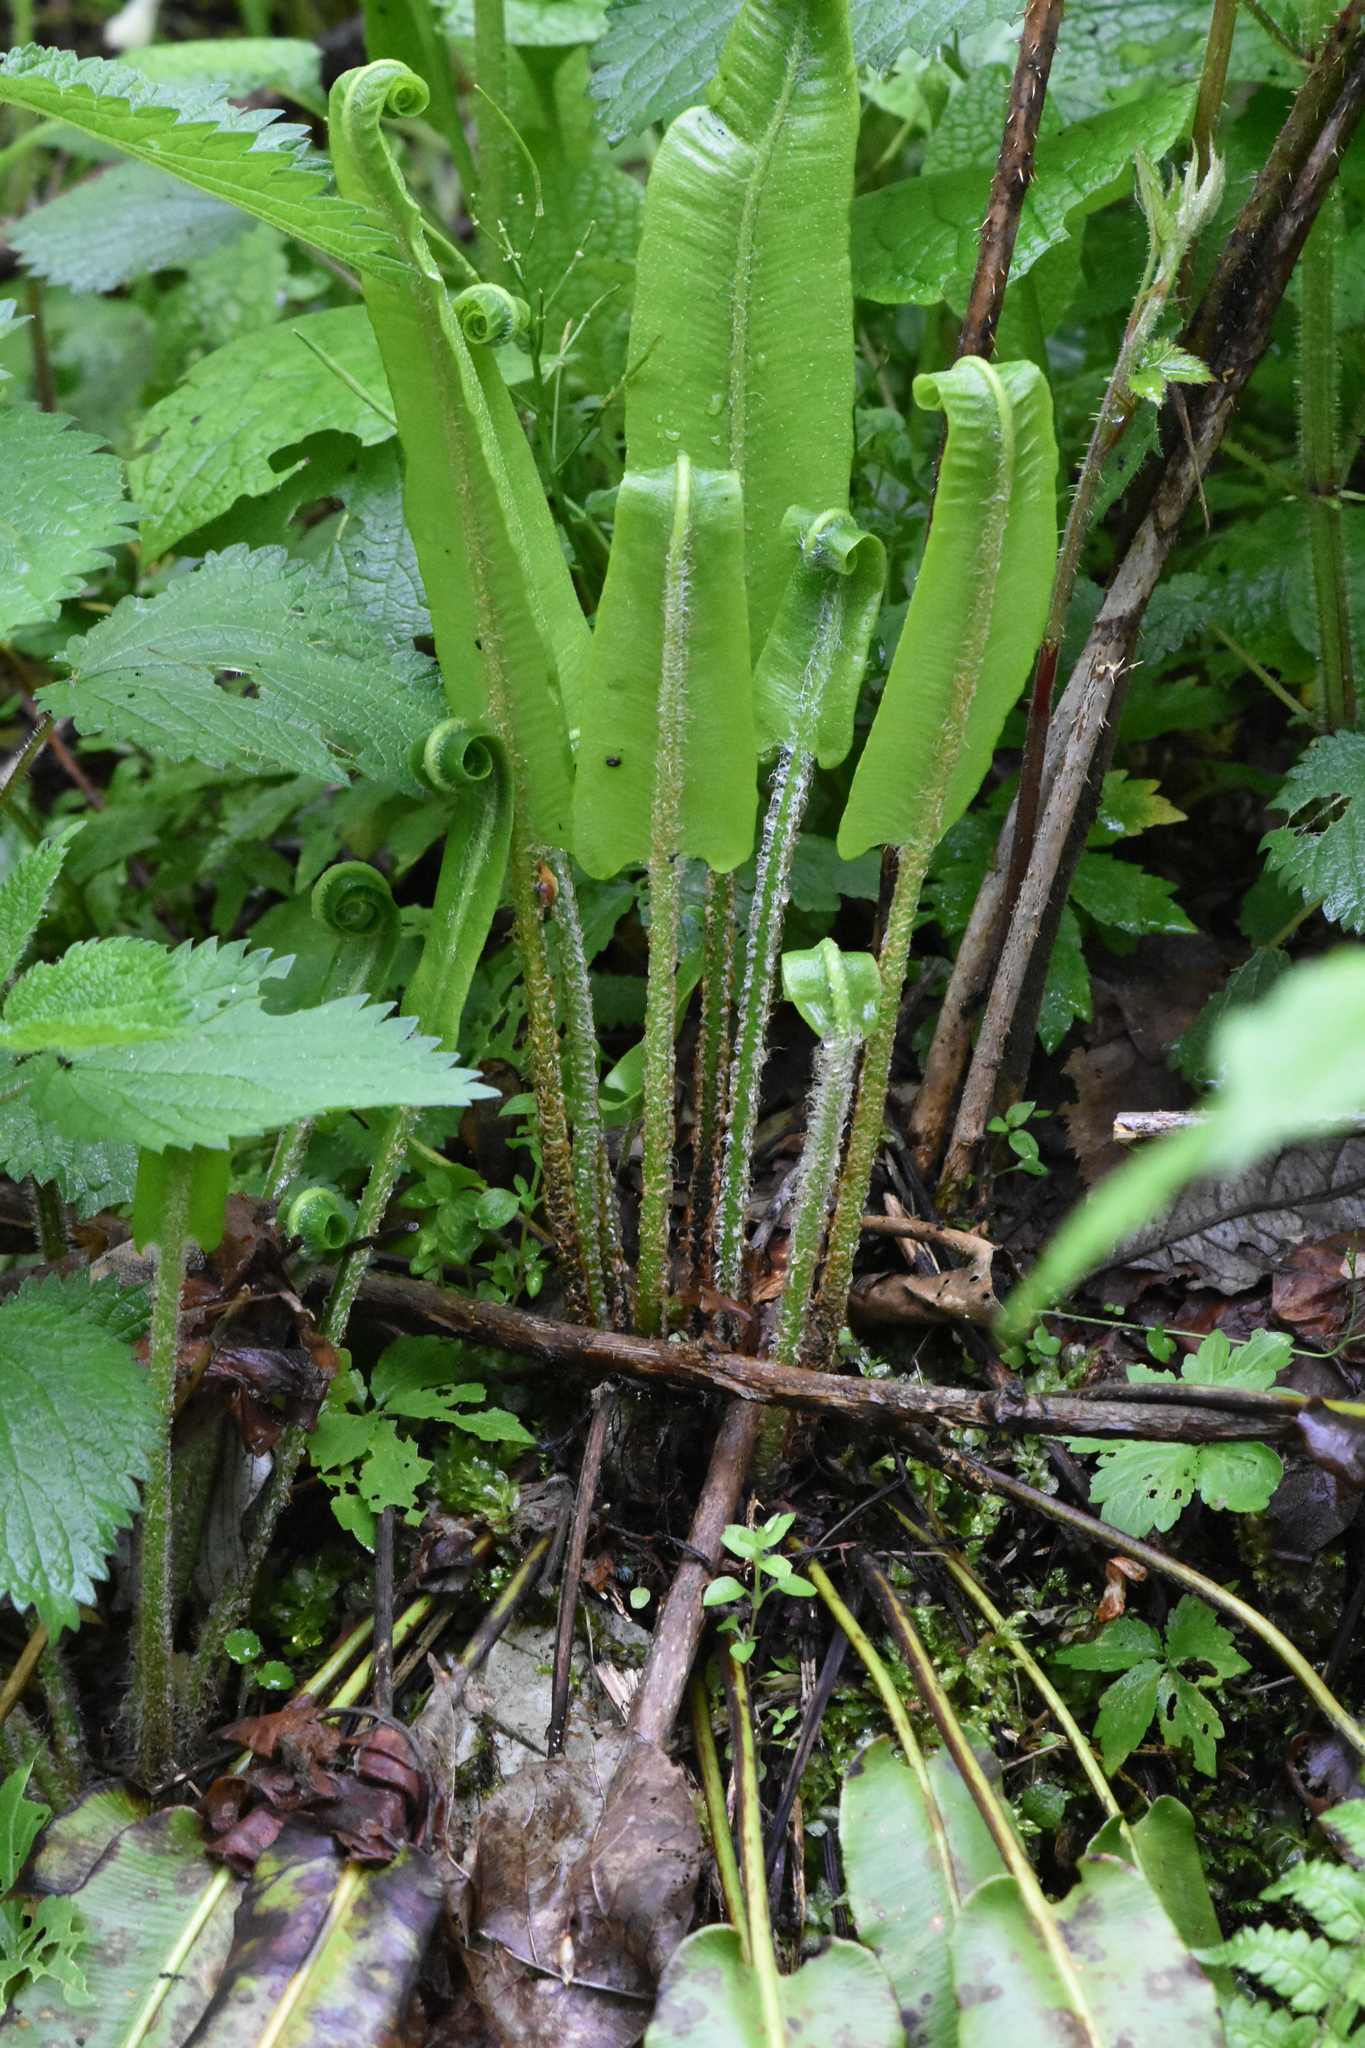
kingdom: Plantae
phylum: Tracheophyta
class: Polypodiopsida
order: Polypodiales
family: Aspleniaceae
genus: Asplenium
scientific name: Asplenium scolopendrium
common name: Hart's-tongue fern
